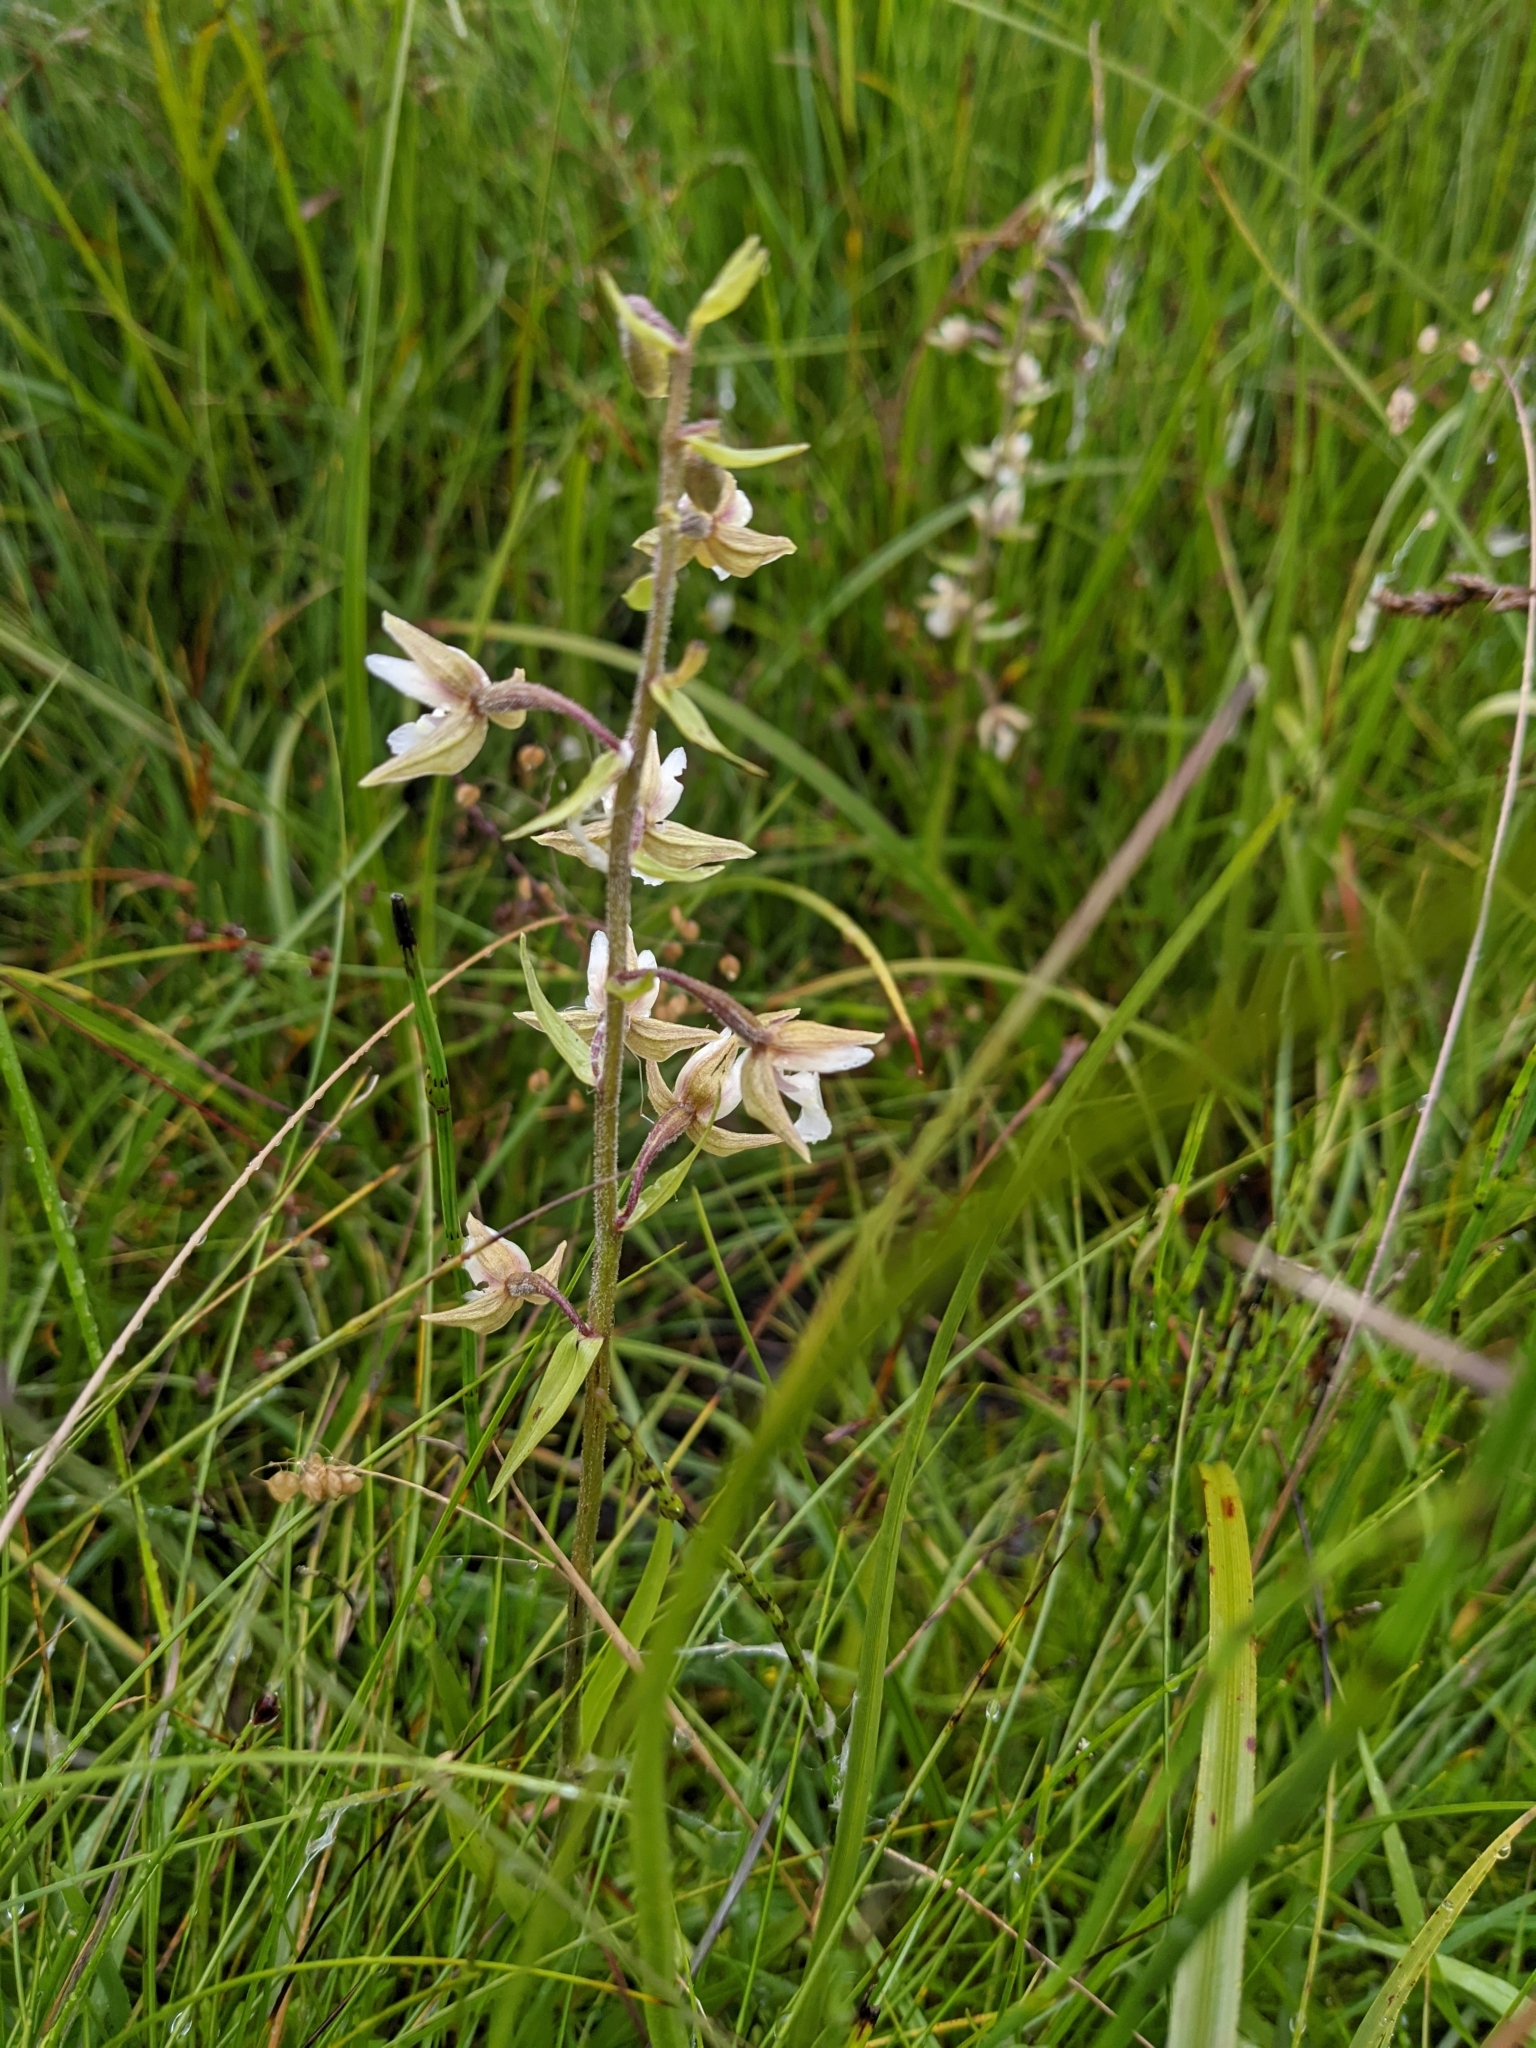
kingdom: Plantae
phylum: Tracheophyta
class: Liliopsida
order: Asparagales
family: Orchidaceae
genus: Epipactis
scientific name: Epipactis palustris
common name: Marsh helleborine
